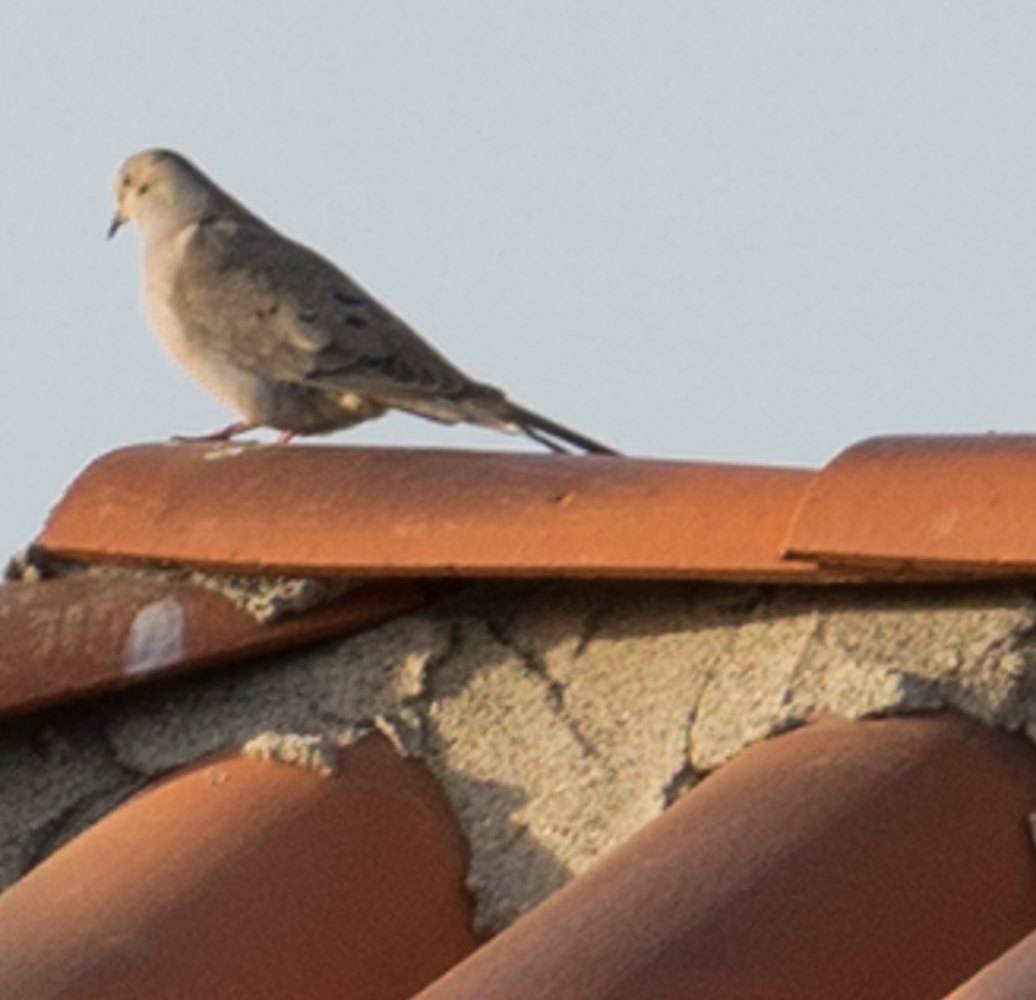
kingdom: Animalia
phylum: Chordata
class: Aves
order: Columbiformes
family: Columbidae
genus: Zenaida
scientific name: Zenaida macroura
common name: Mourning dove
